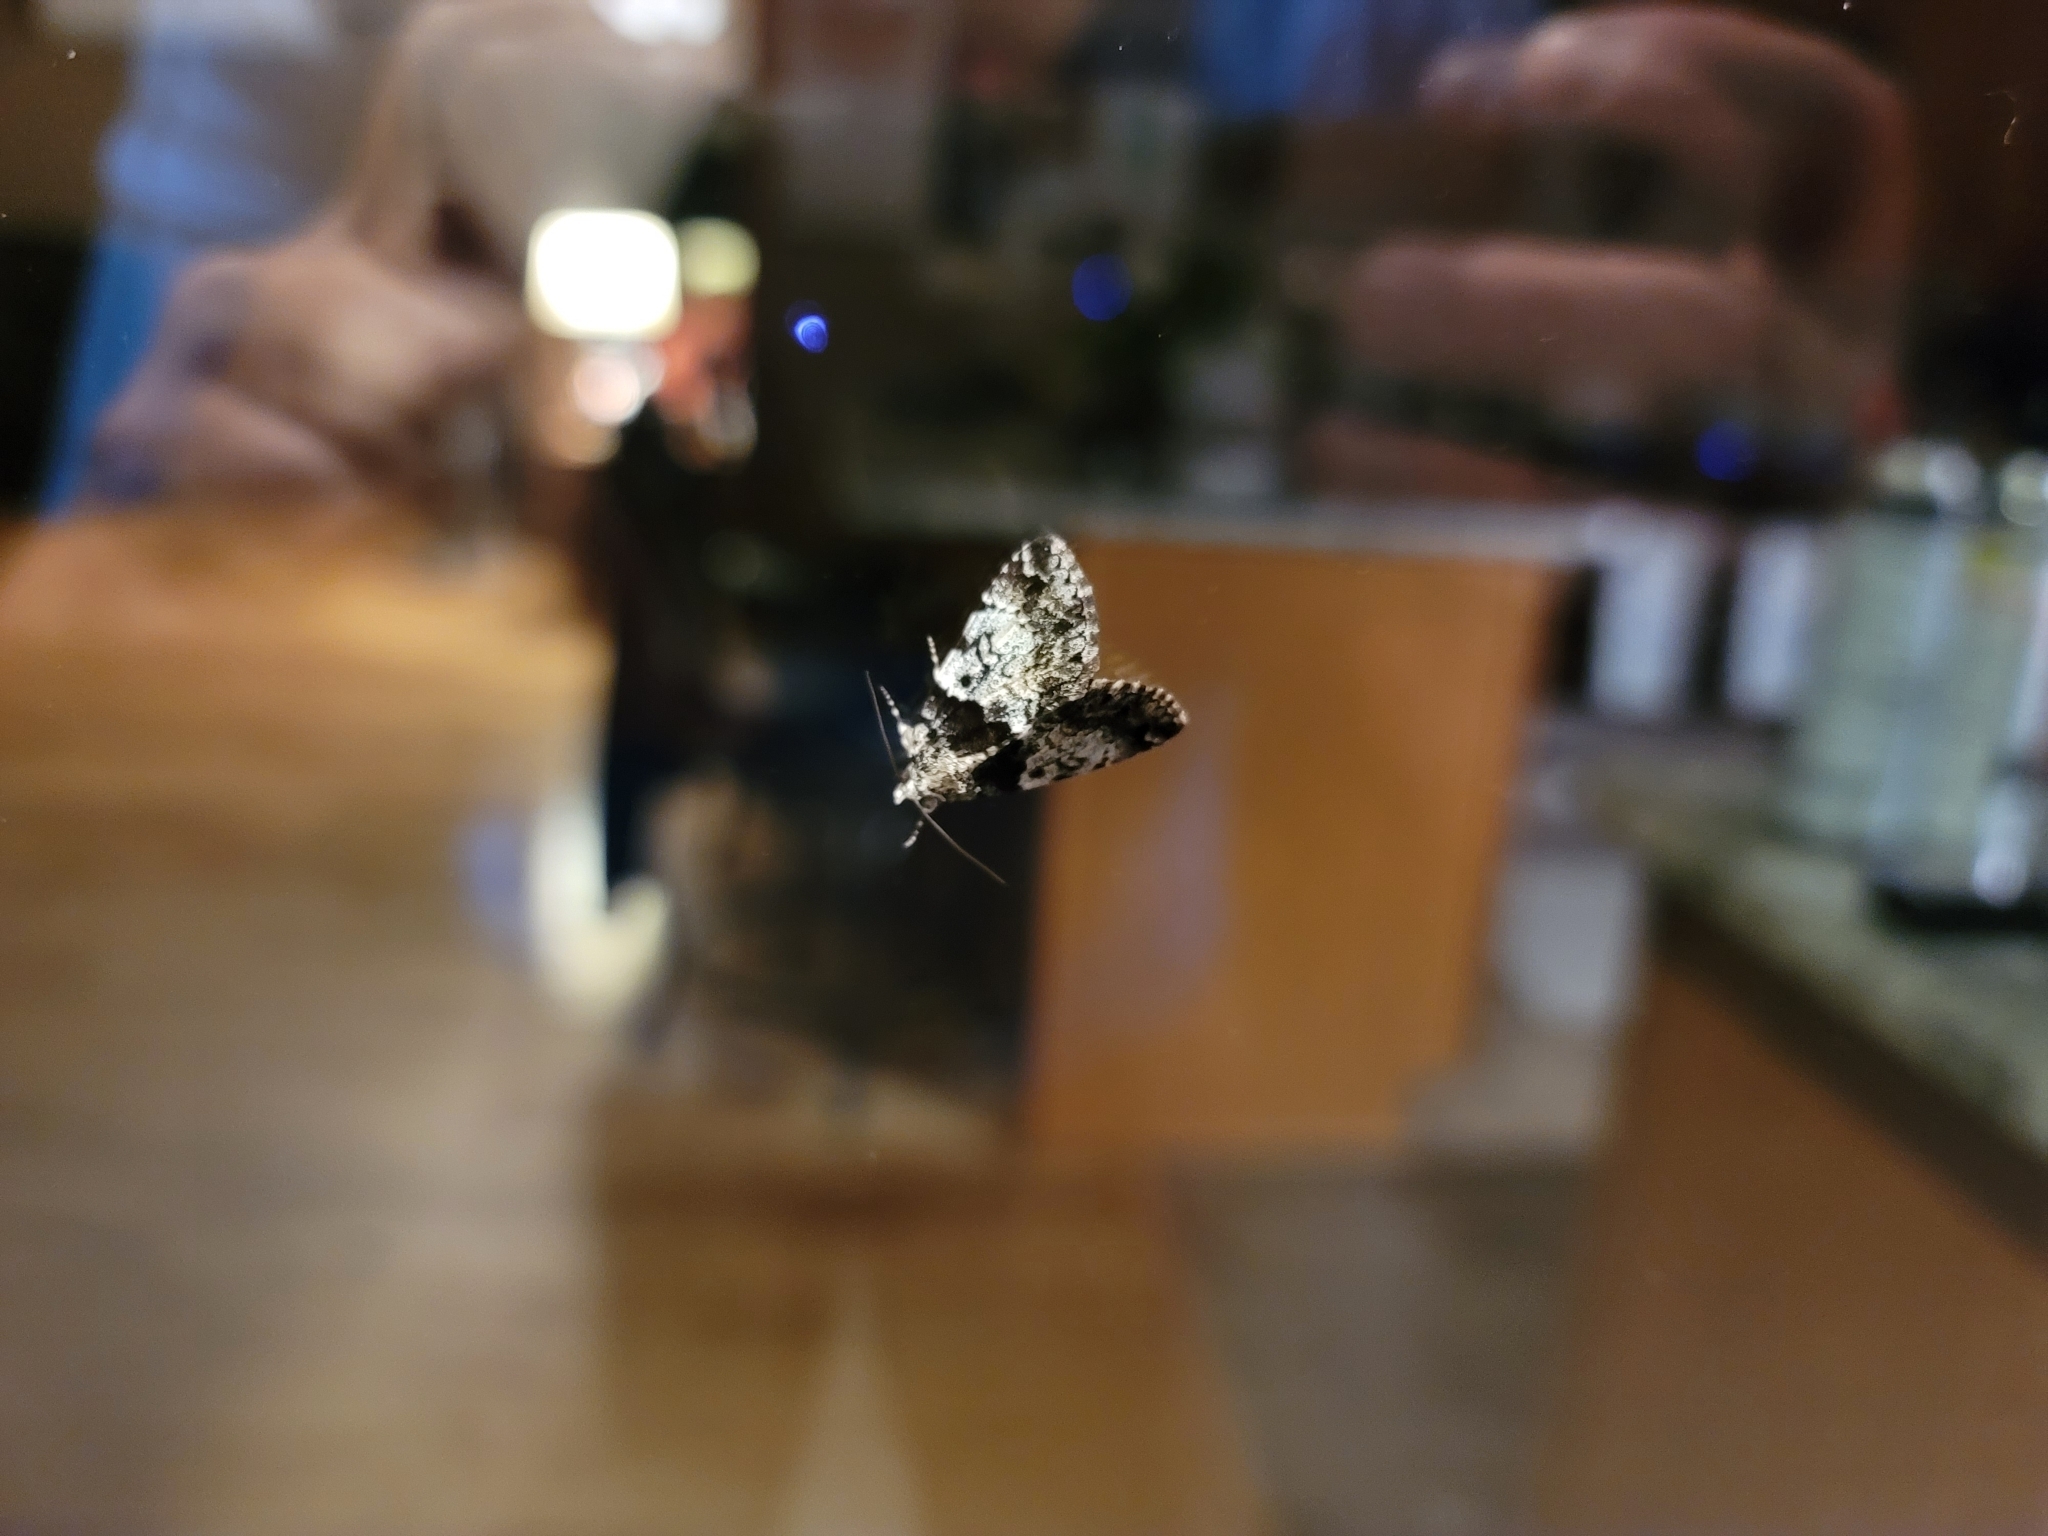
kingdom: Animalia
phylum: Arthropoda
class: Insecta
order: Lepidoptera
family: Erebidae
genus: Allotria
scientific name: Allotria elonympha
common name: False underwing
